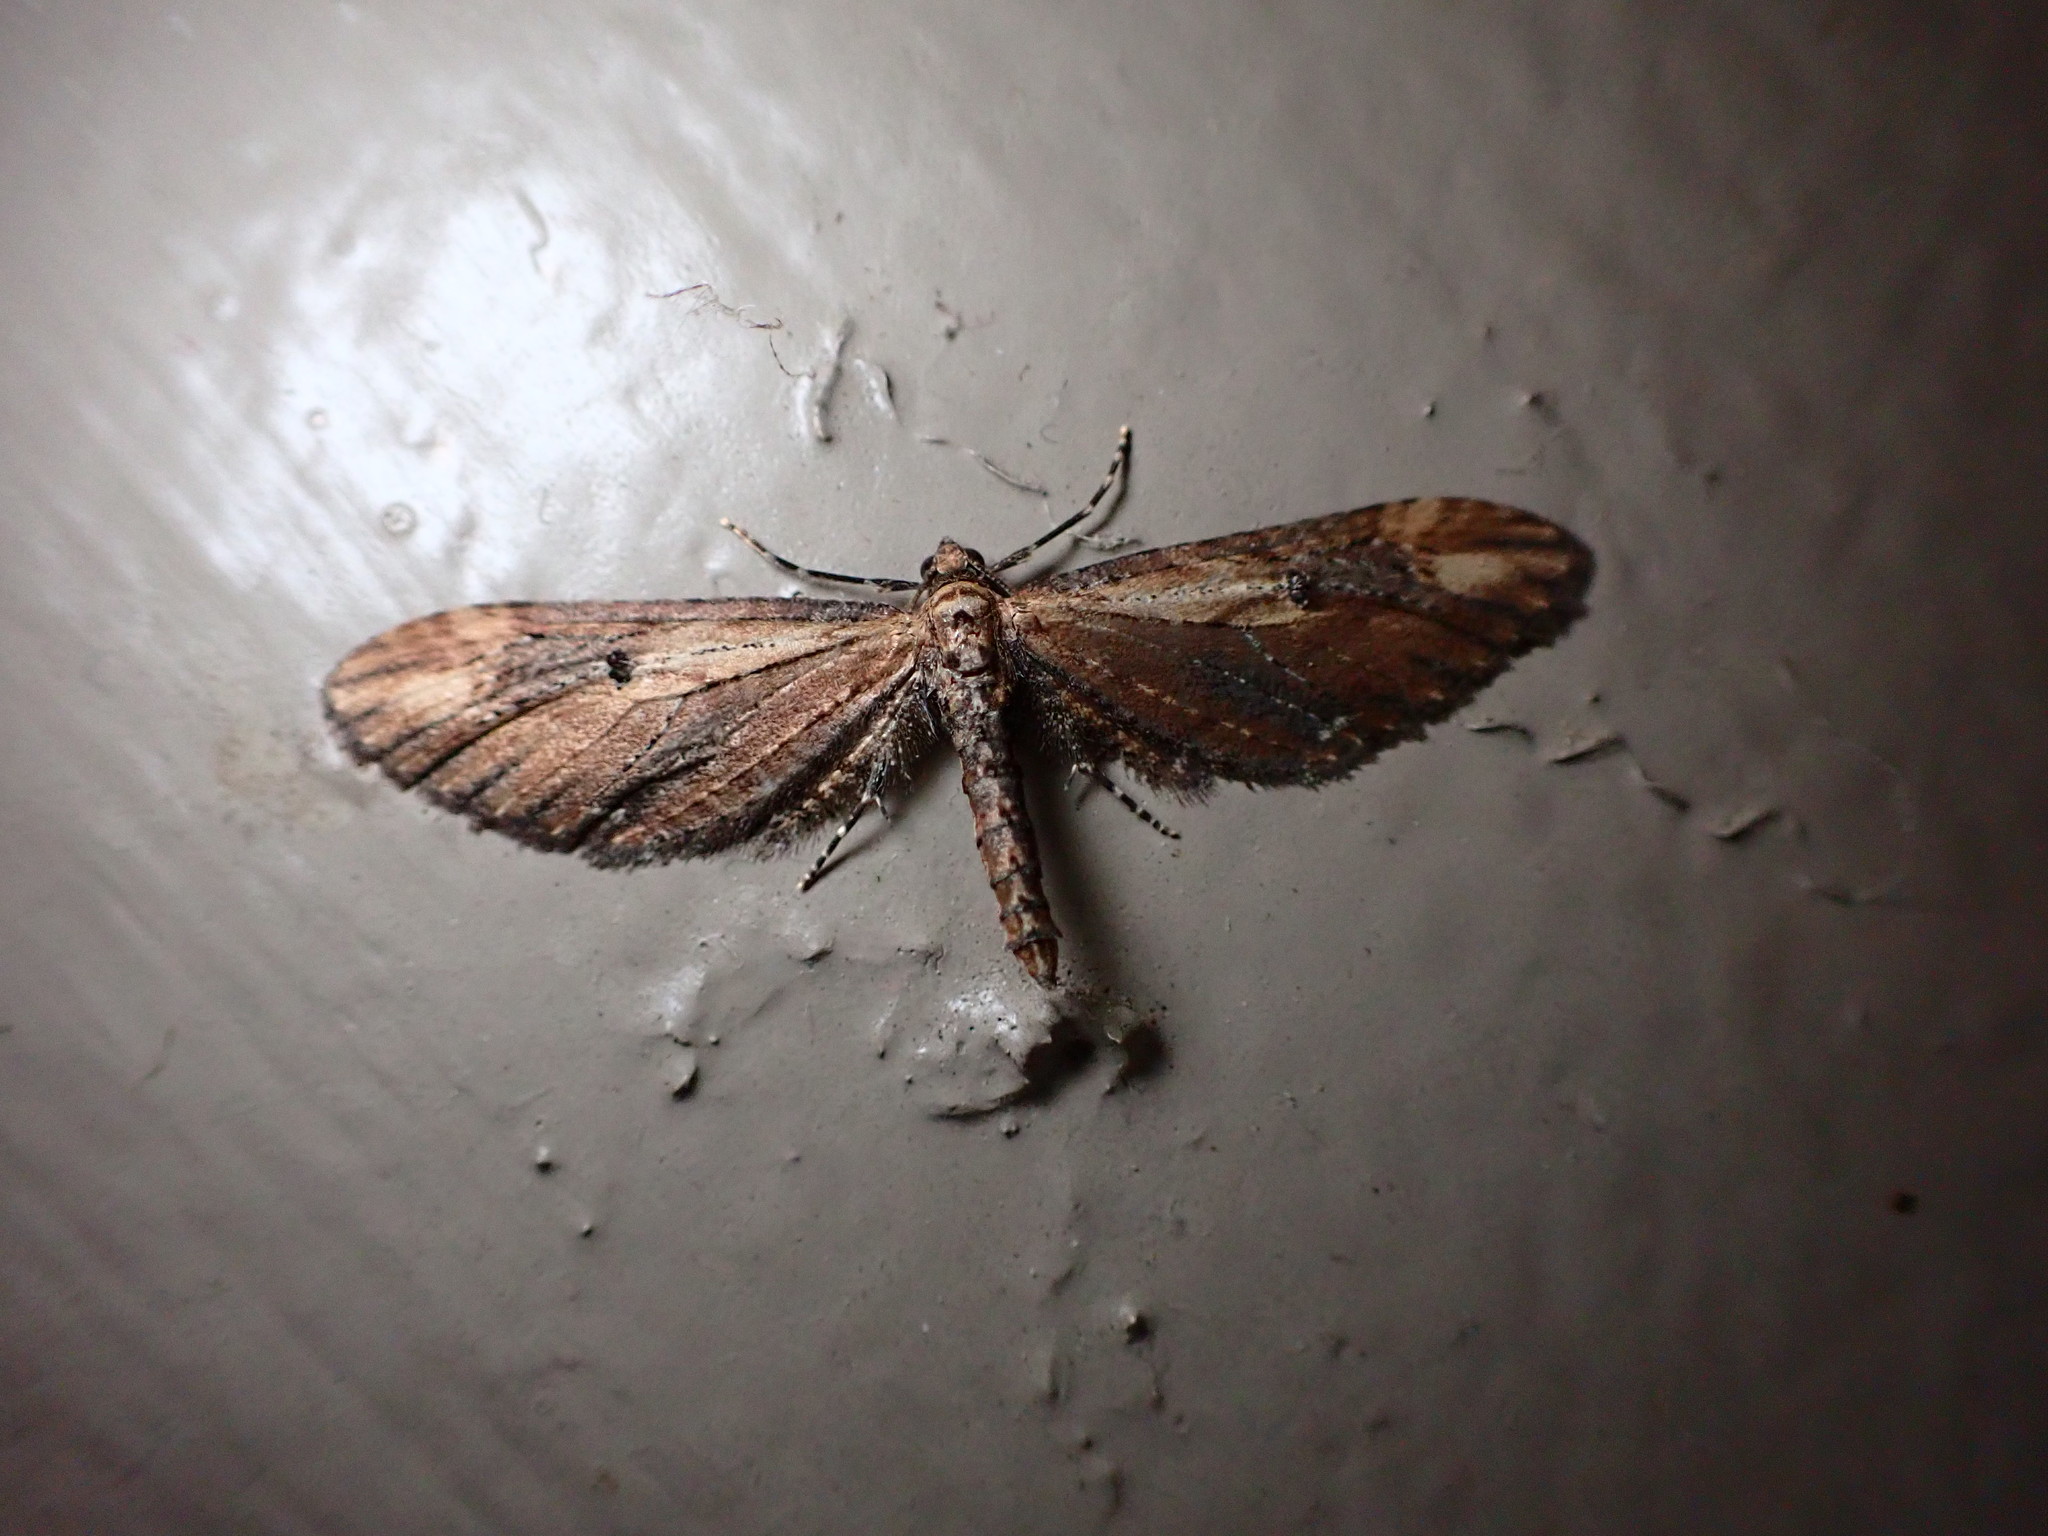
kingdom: Animalia
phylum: Arthropoda
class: Insecta
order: Lepidoptera
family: Geometridae
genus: Eupithecia
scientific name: Eupithecia subapicata
